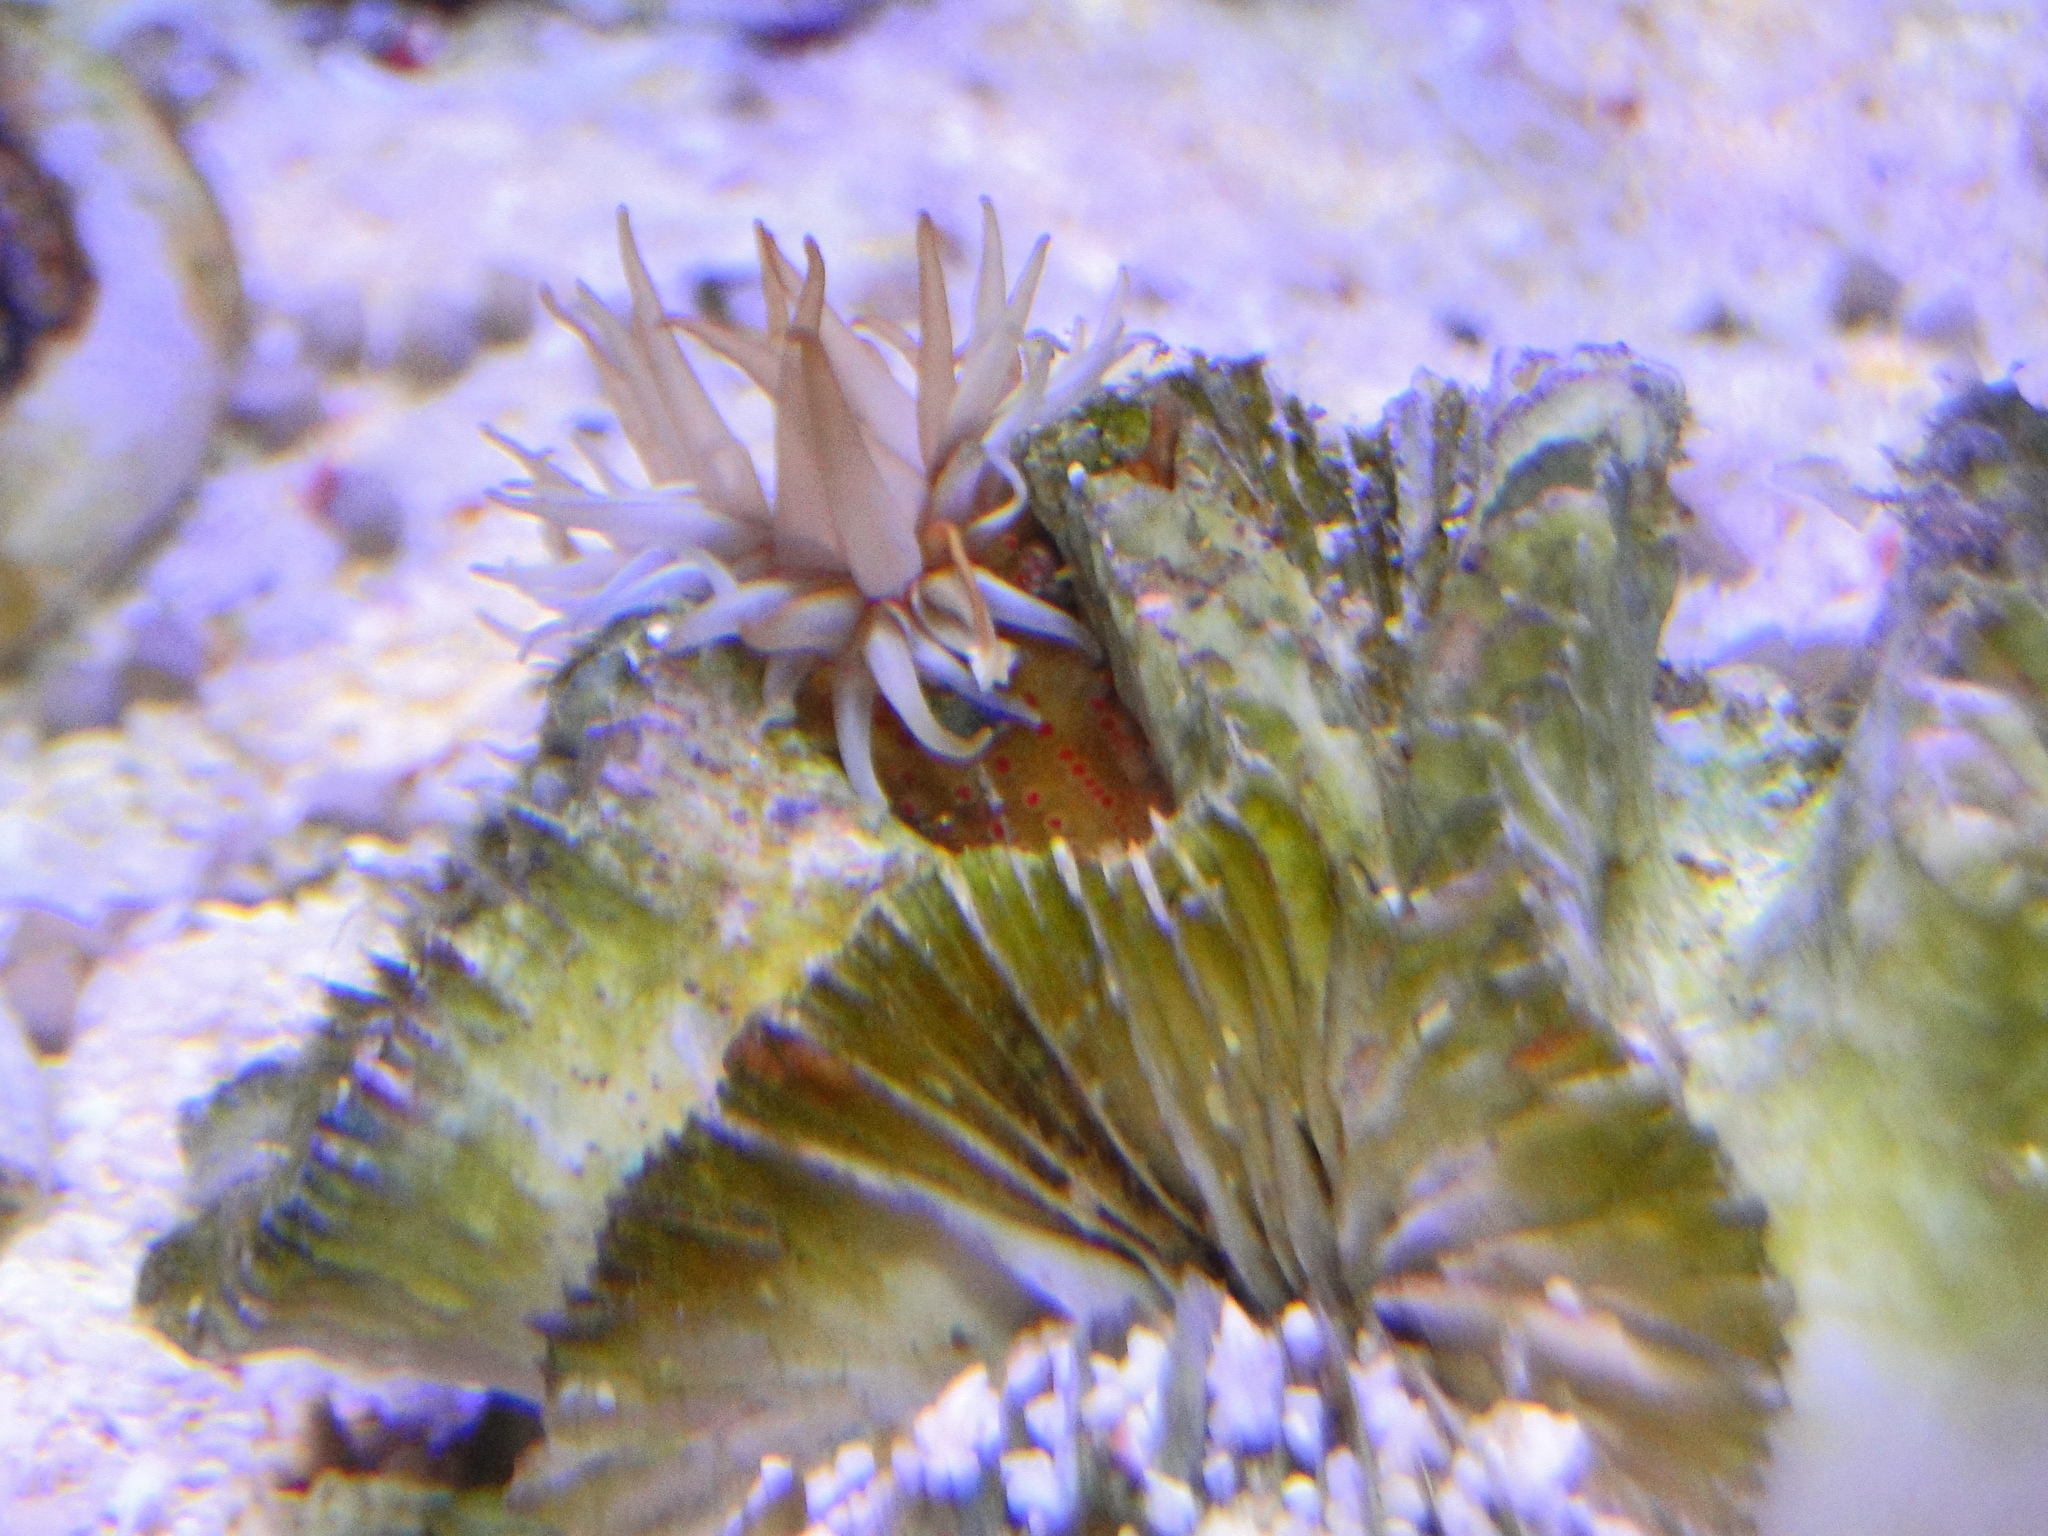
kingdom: Animalia
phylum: Cnidaria
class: Anthozoa
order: Actiniaria
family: Actiniidae
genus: Bunodactis
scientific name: Bunodactis rubripunctata
